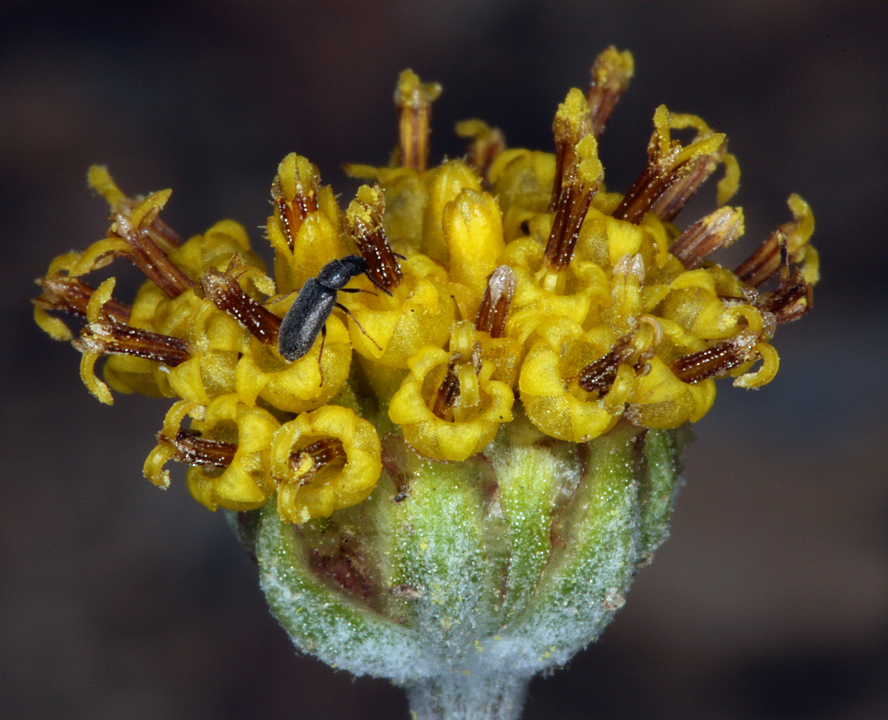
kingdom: Plantae
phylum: Tracheophyta
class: Magnoliopsida
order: Asterales
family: Asteraceae
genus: Hymenopappus
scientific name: Hymenopappus filifolius
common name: Columbia cutleaf
